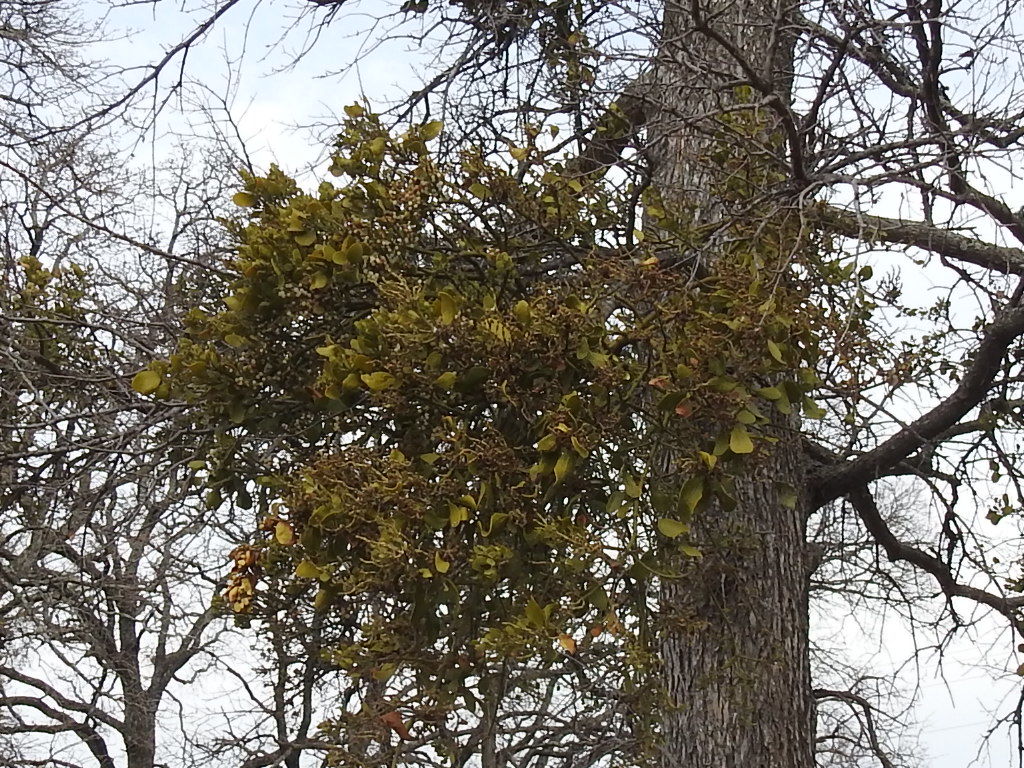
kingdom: Plantae
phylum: Tracheophyta
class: Magnoliopsida
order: Santalales
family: Viscaceae
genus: Phoradendron
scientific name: Phoradendron leucarpum
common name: Pacific mistletoe
